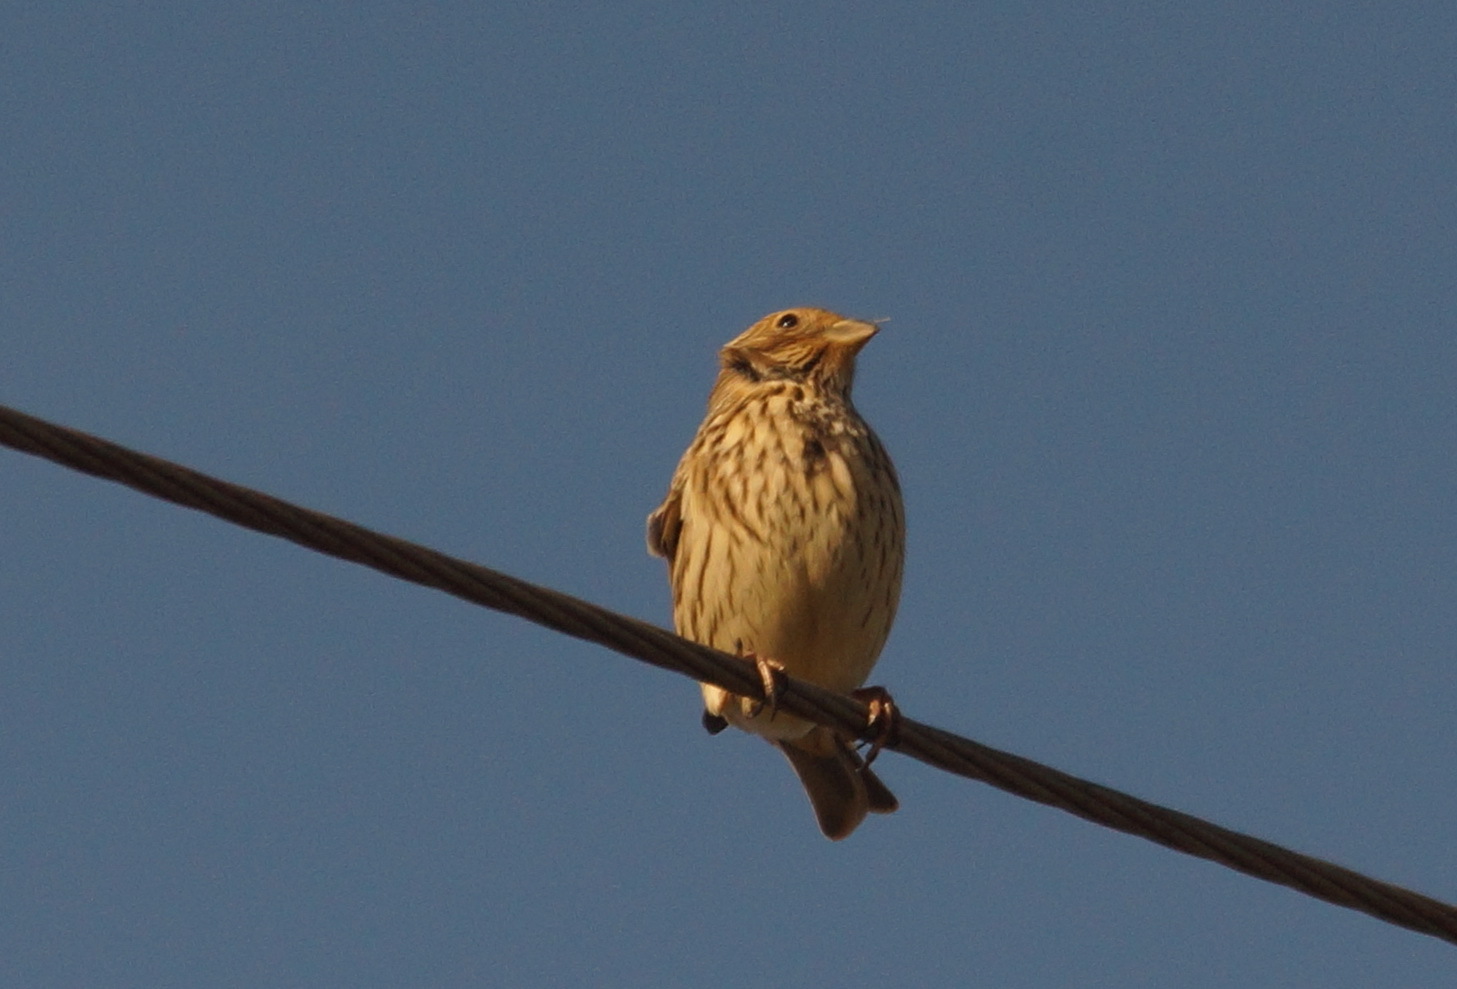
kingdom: Animalia
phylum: Chordata
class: Aves
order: Passeriformes
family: Emberizidae
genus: Emberiza
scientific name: Emberiza calandra
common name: Corn bunting
